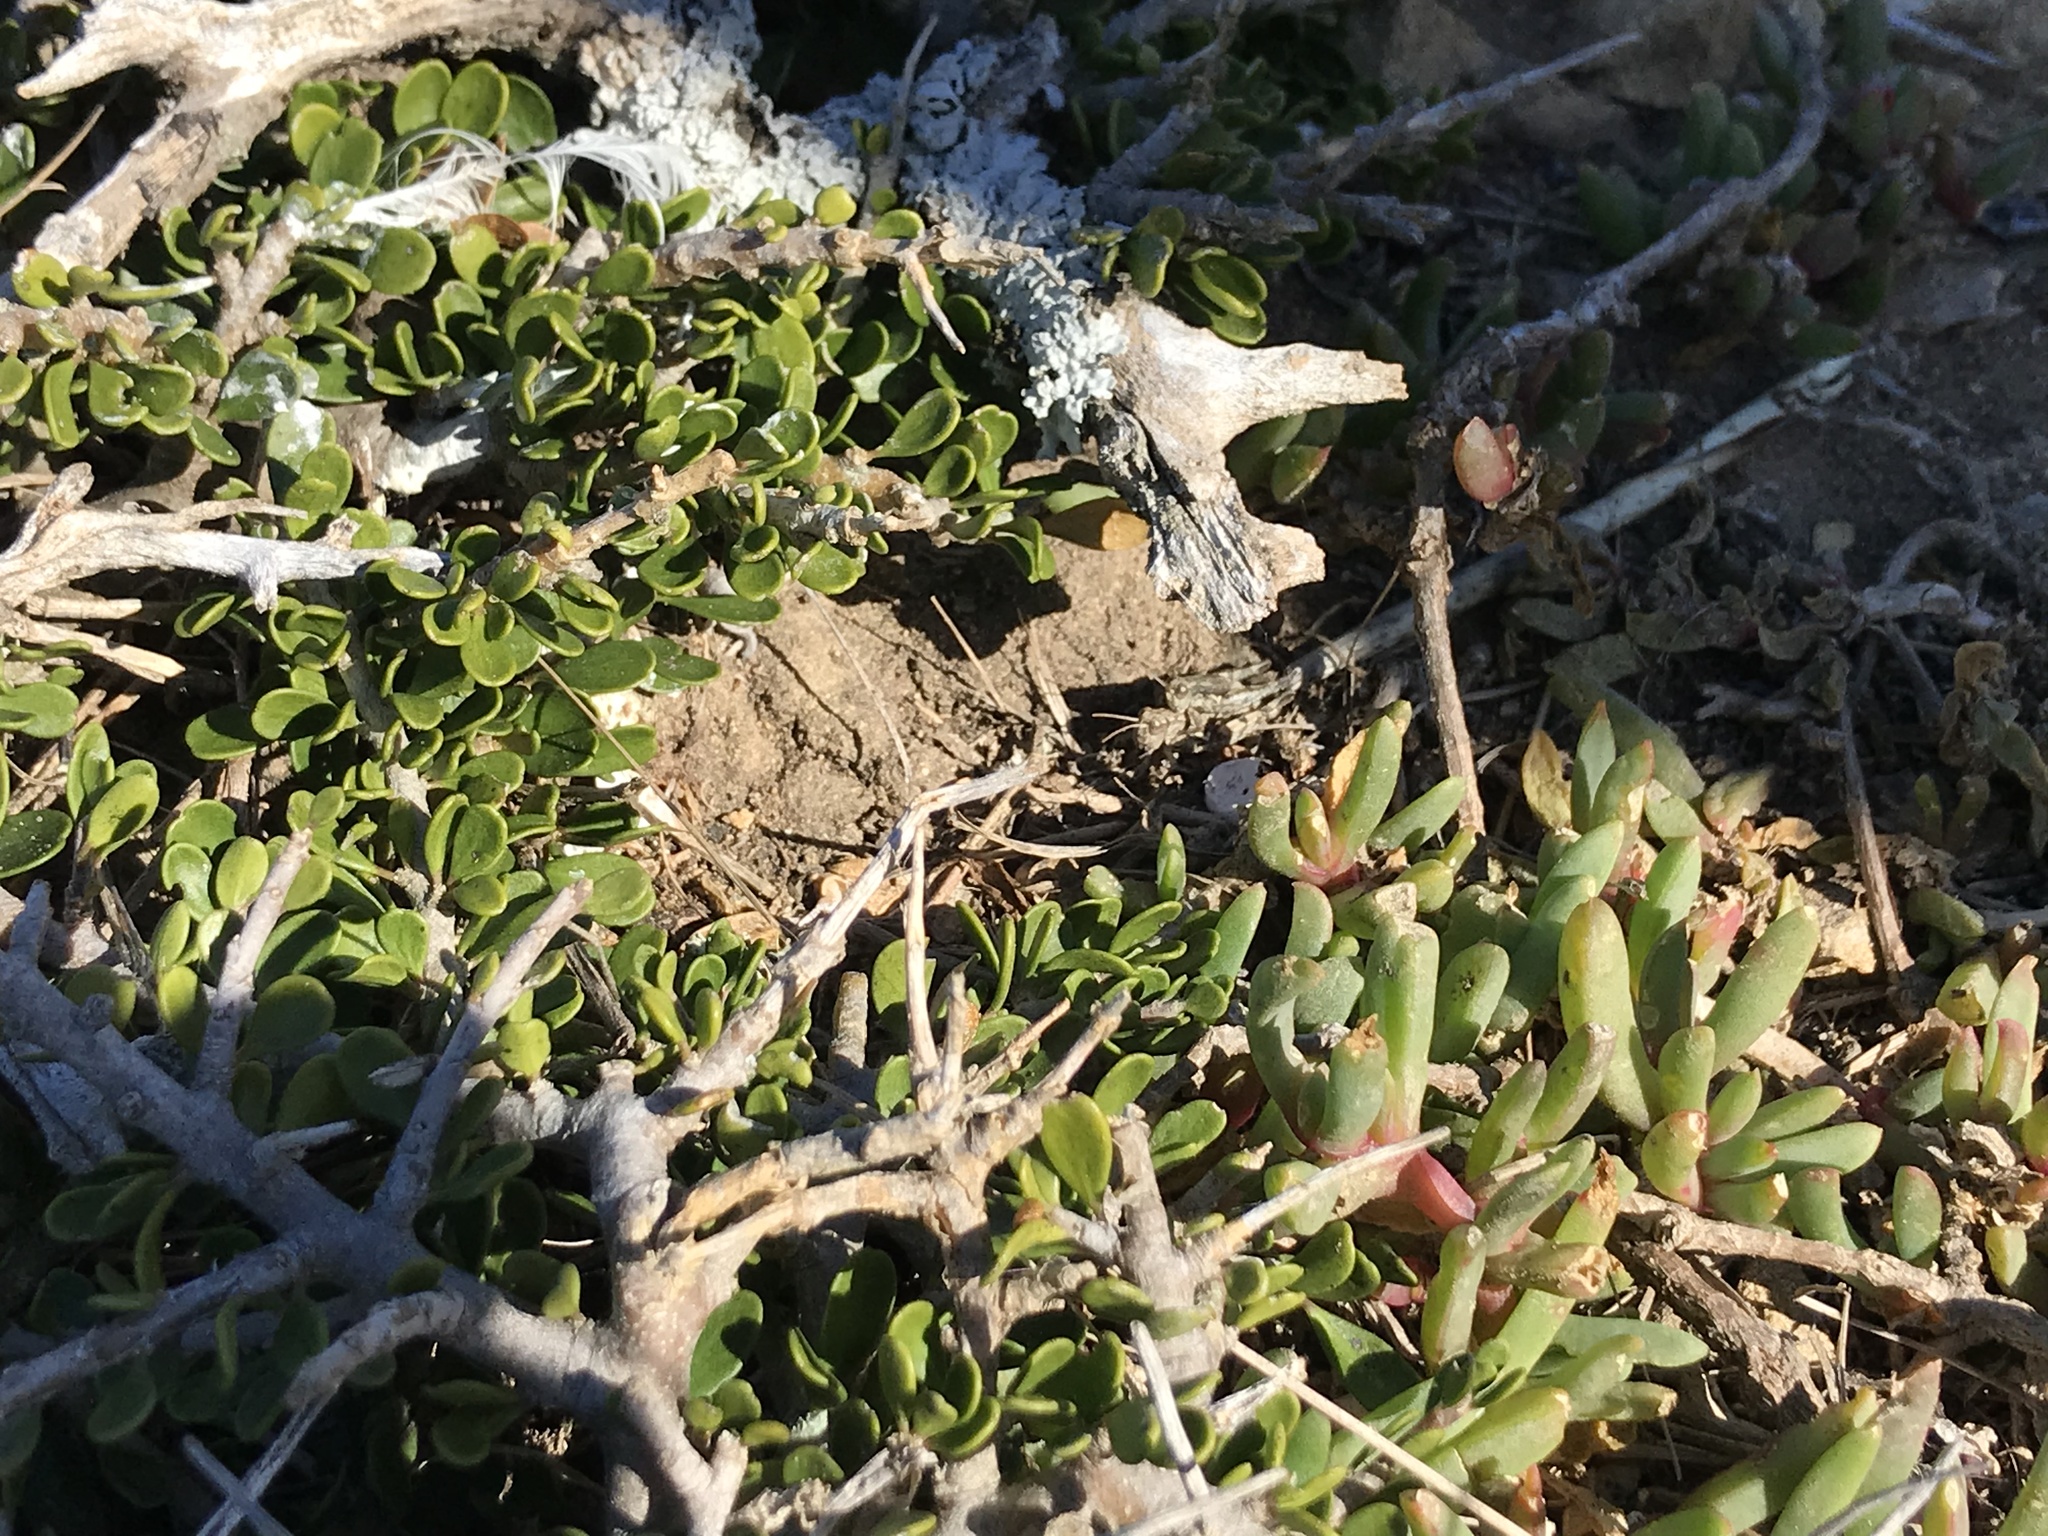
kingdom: Plantae
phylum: Tracheophyta
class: Magnoliopsida
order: Malpighiales
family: Violaceae
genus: Melicytus
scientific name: Melicytus crassifolius
